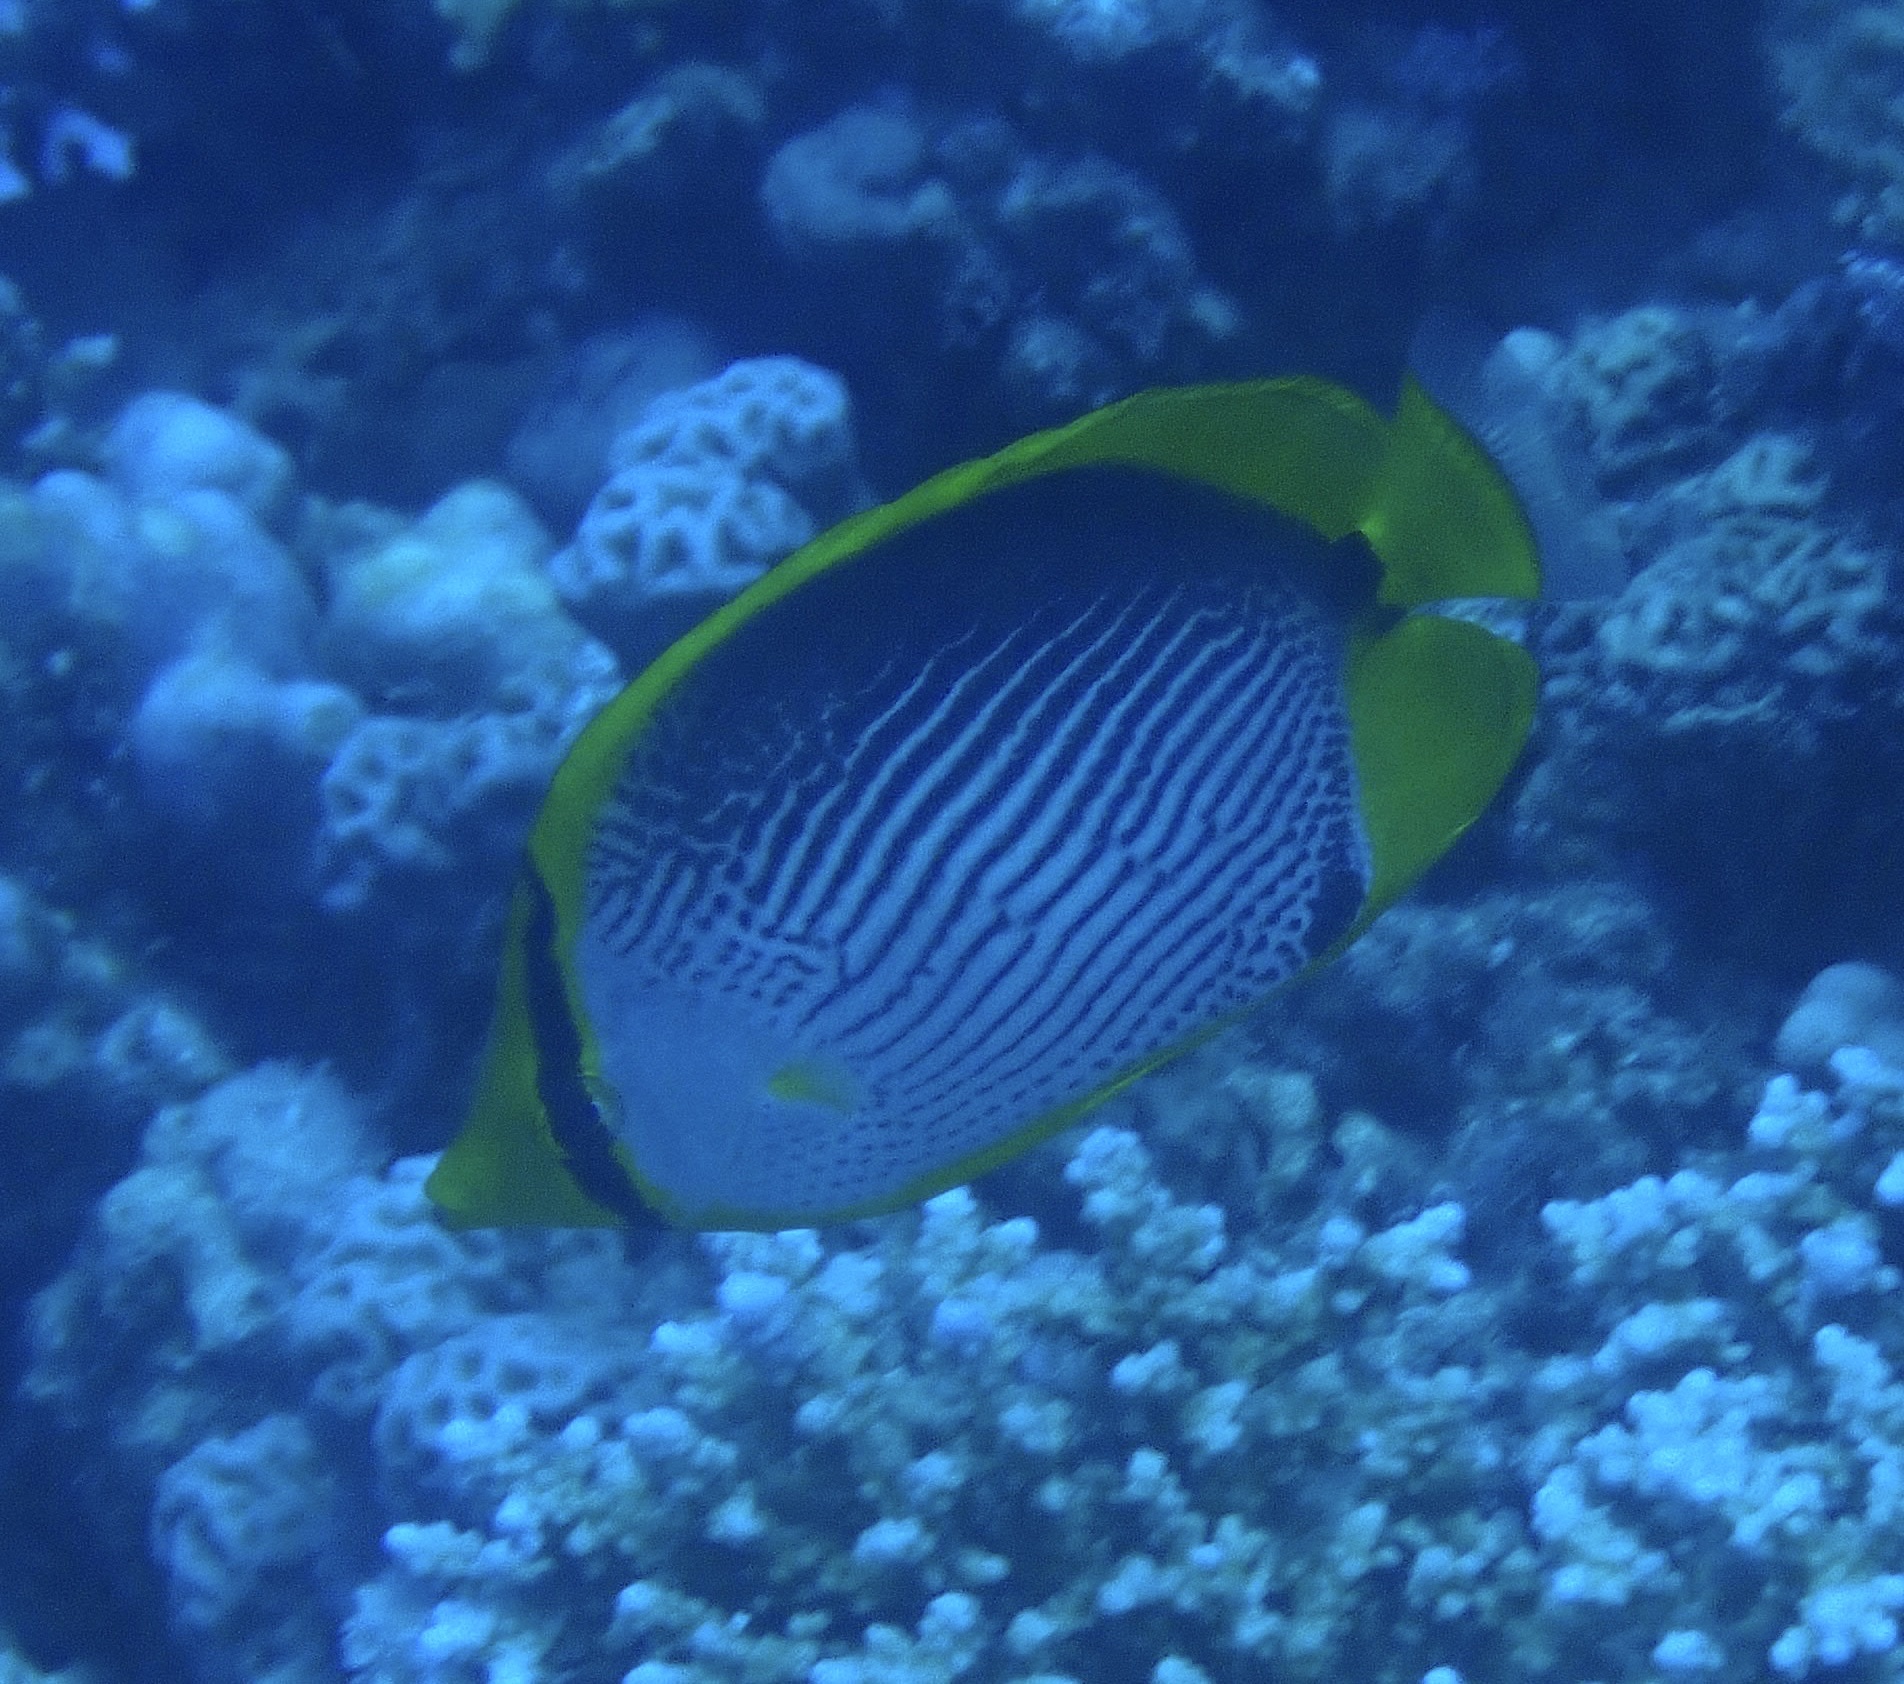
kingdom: Animalia
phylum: Chordata
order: Perciformes
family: Chaetodontidae
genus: Chaetodon
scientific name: Chaetodon melannotus
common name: Blackback butterflyfish
